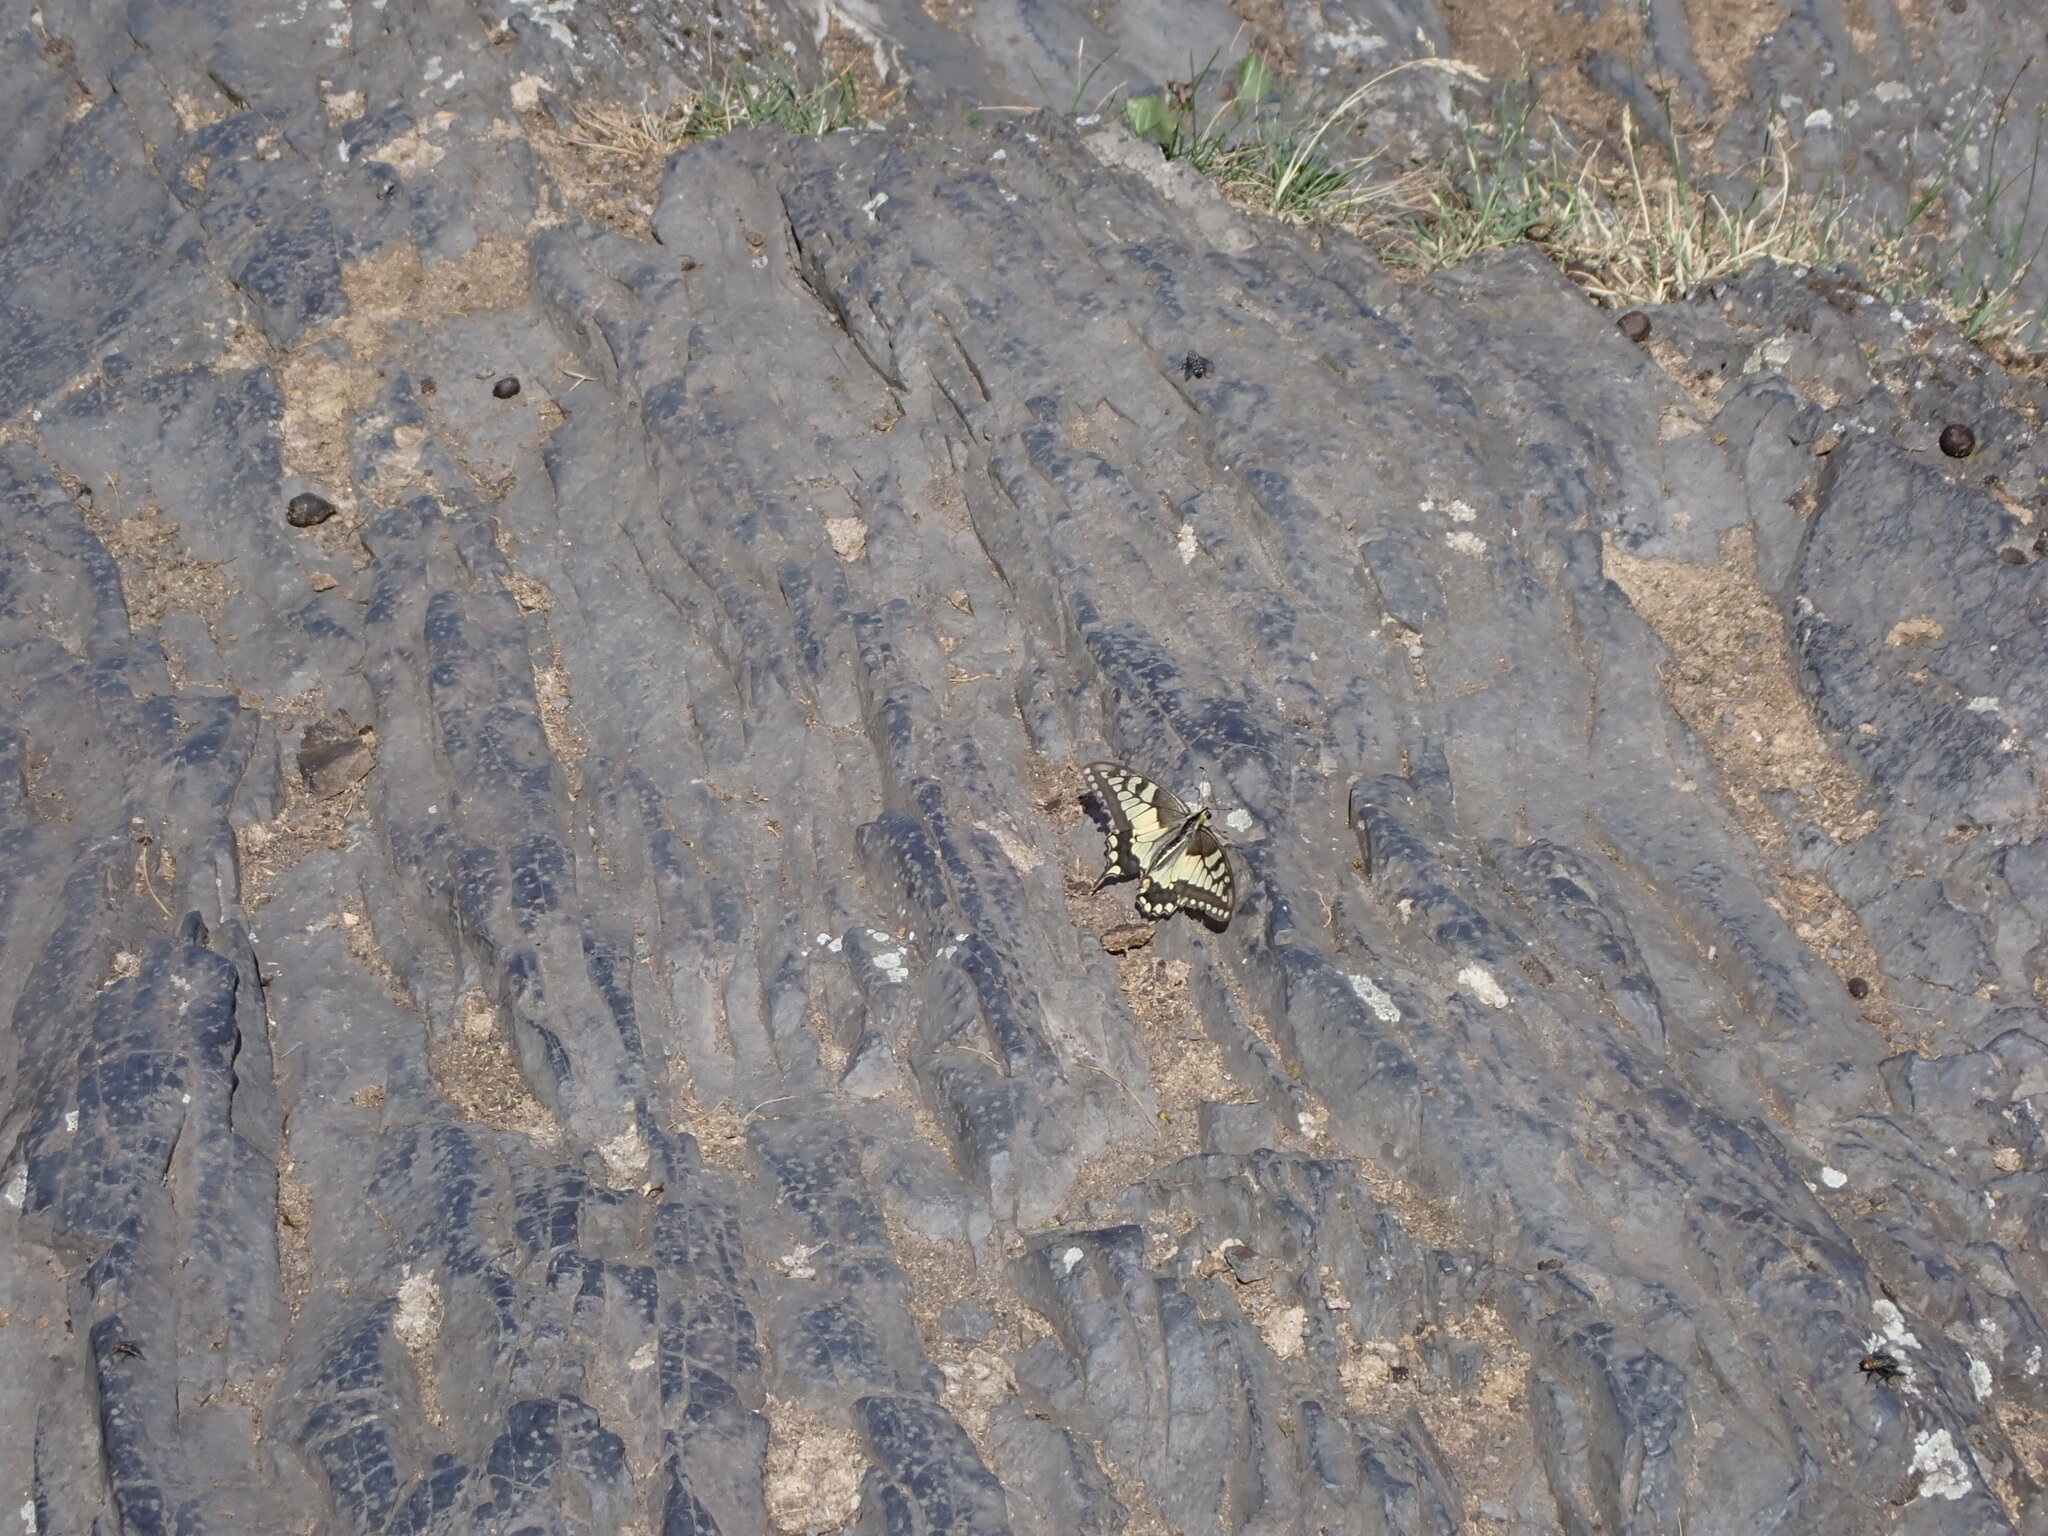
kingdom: Animalia
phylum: Arthropoda
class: Insecta
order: Lepidoptera
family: Papilionidae
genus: Papilio
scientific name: Papilio machaon
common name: Swallowtail
